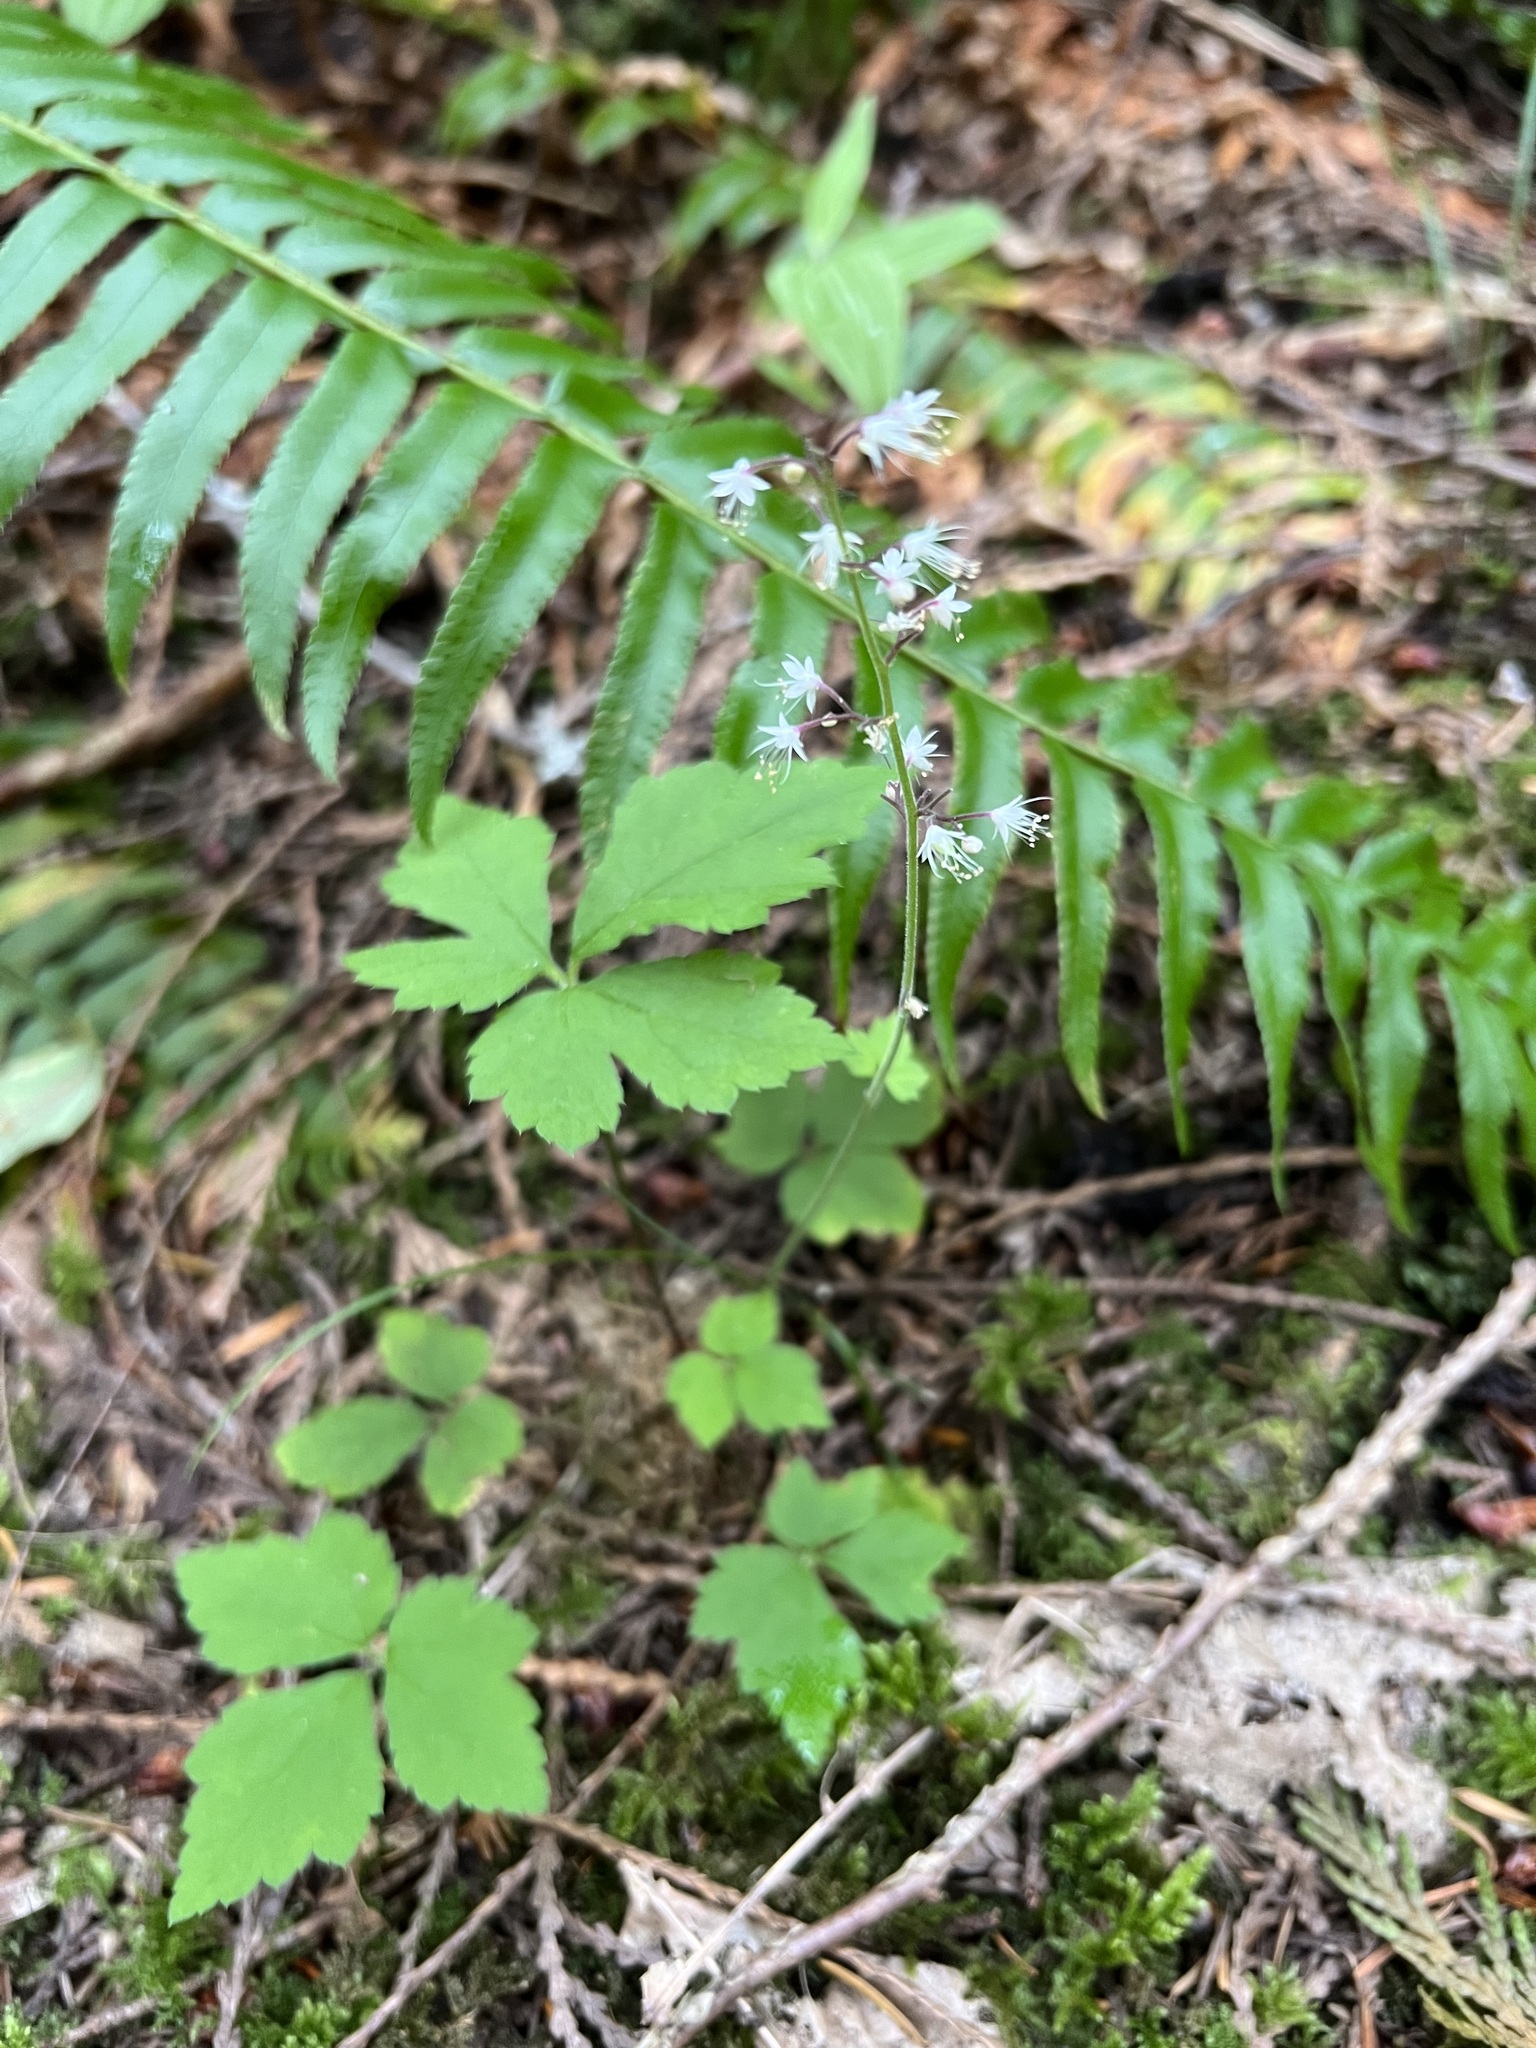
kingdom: Plantae
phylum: Tracheophyta
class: Magnoliopsida
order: Saxifragales
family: Saxifragaceae
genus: Tiarella
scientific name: Tiarella trifoliata
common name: Sugar-scoop
